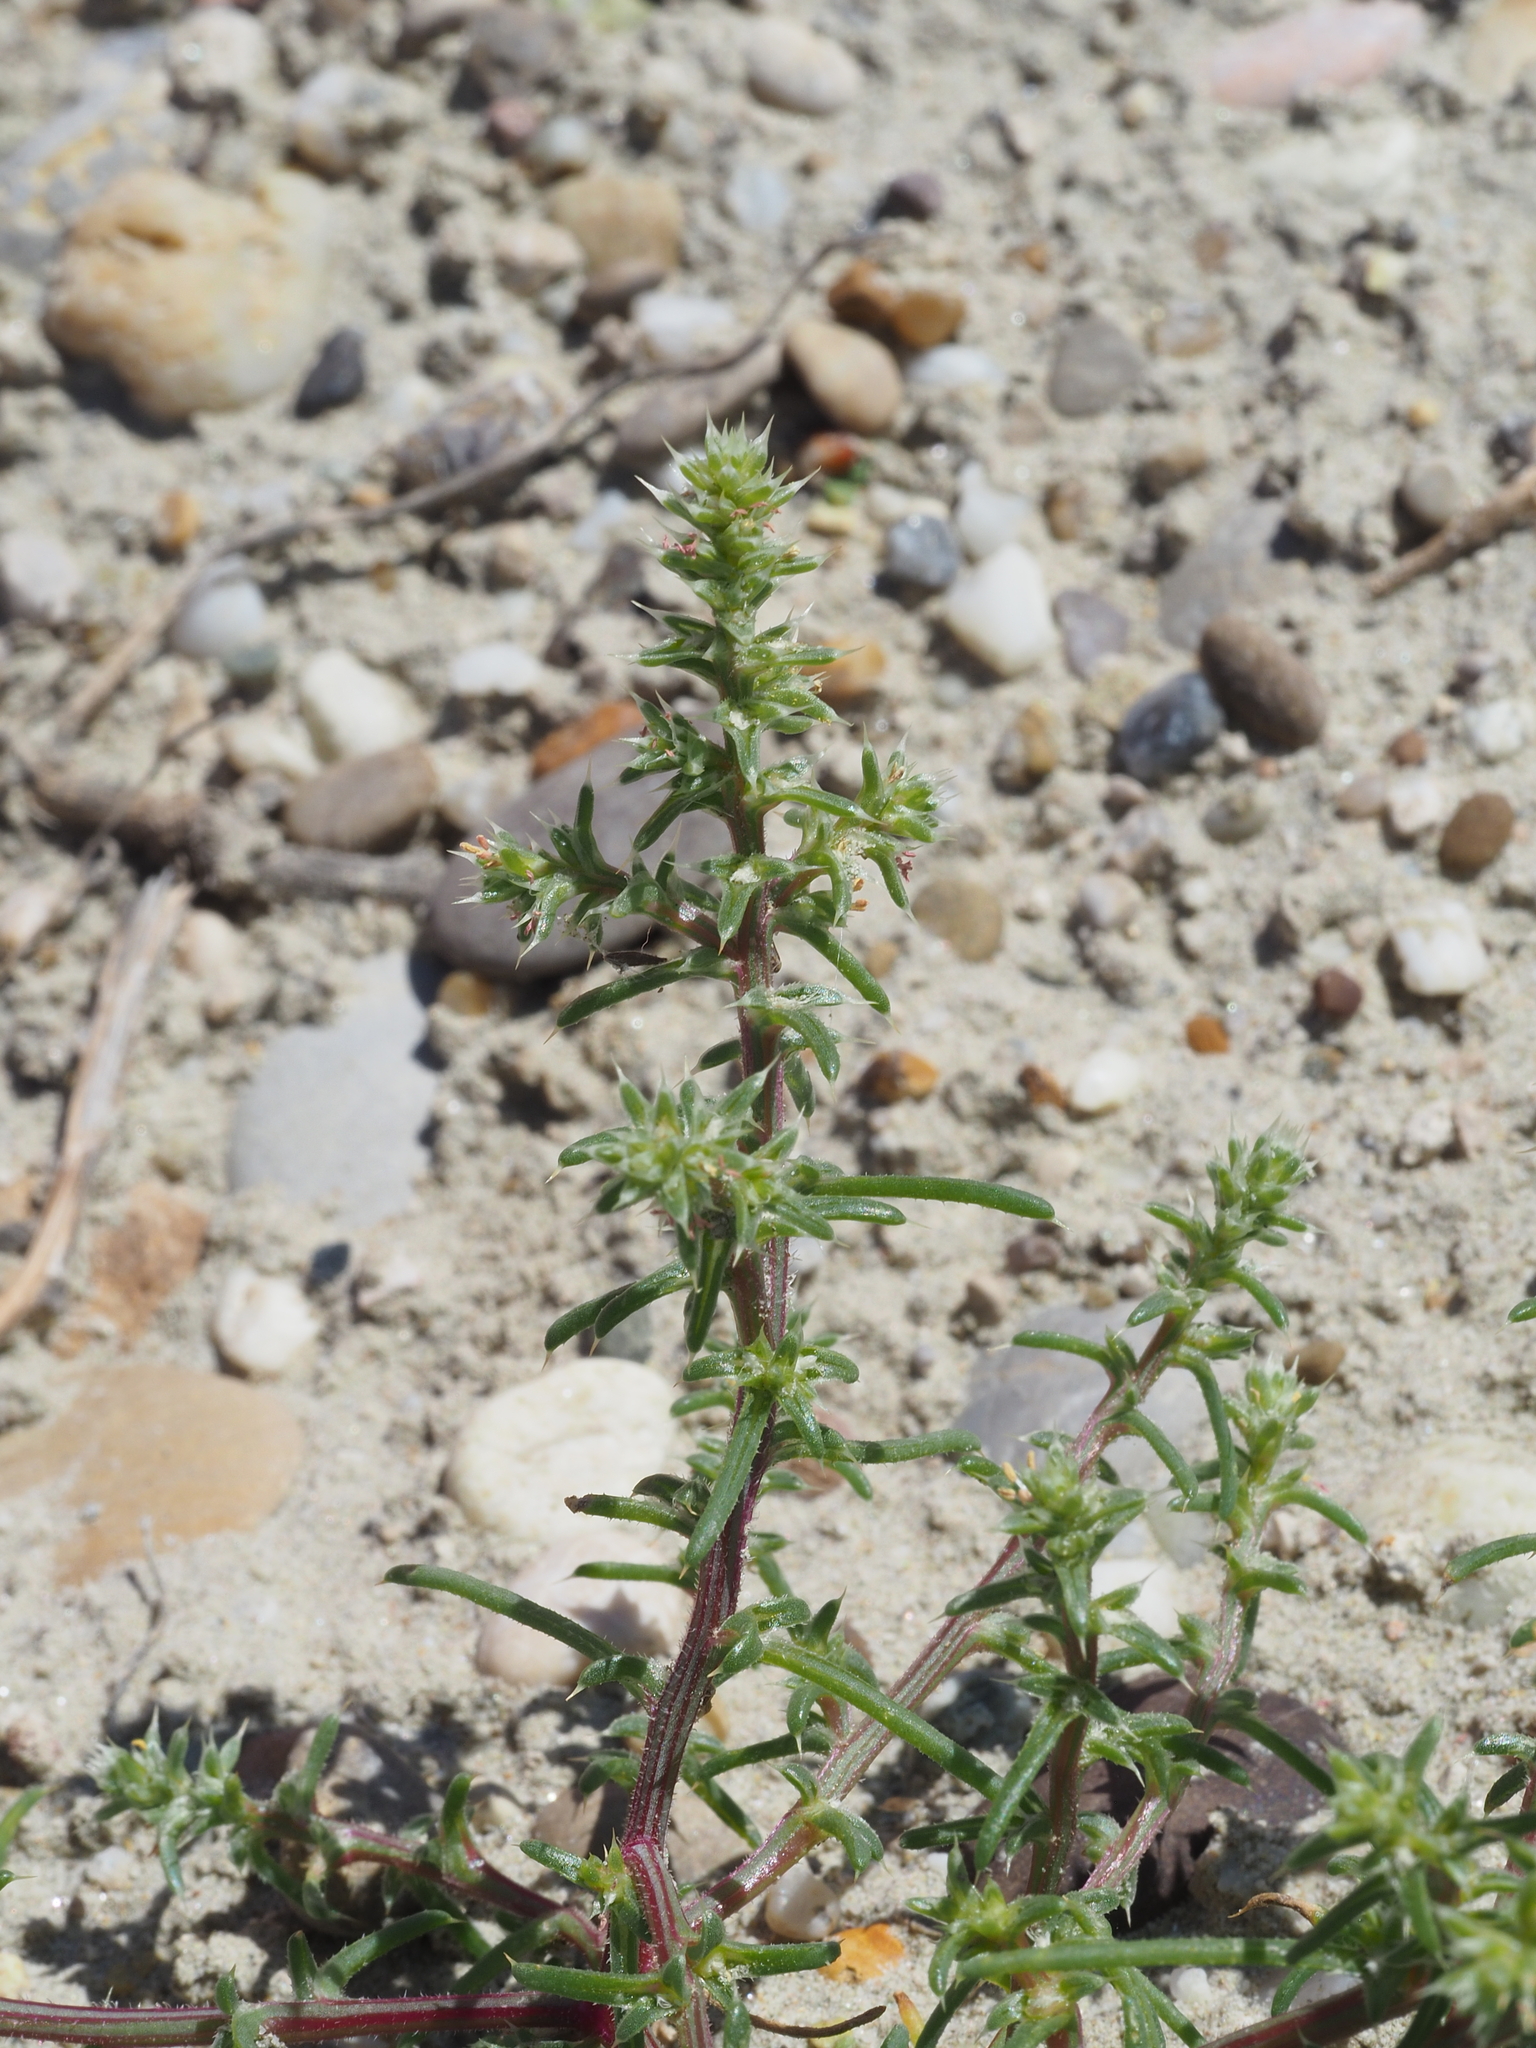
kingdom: Plantae
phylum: Tracheophyta
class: Magnoliopsida
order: Caryophyllales
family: Amaranthaceae
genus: Salsola
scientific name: Salsola tragus
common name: Prickly russian thistle
